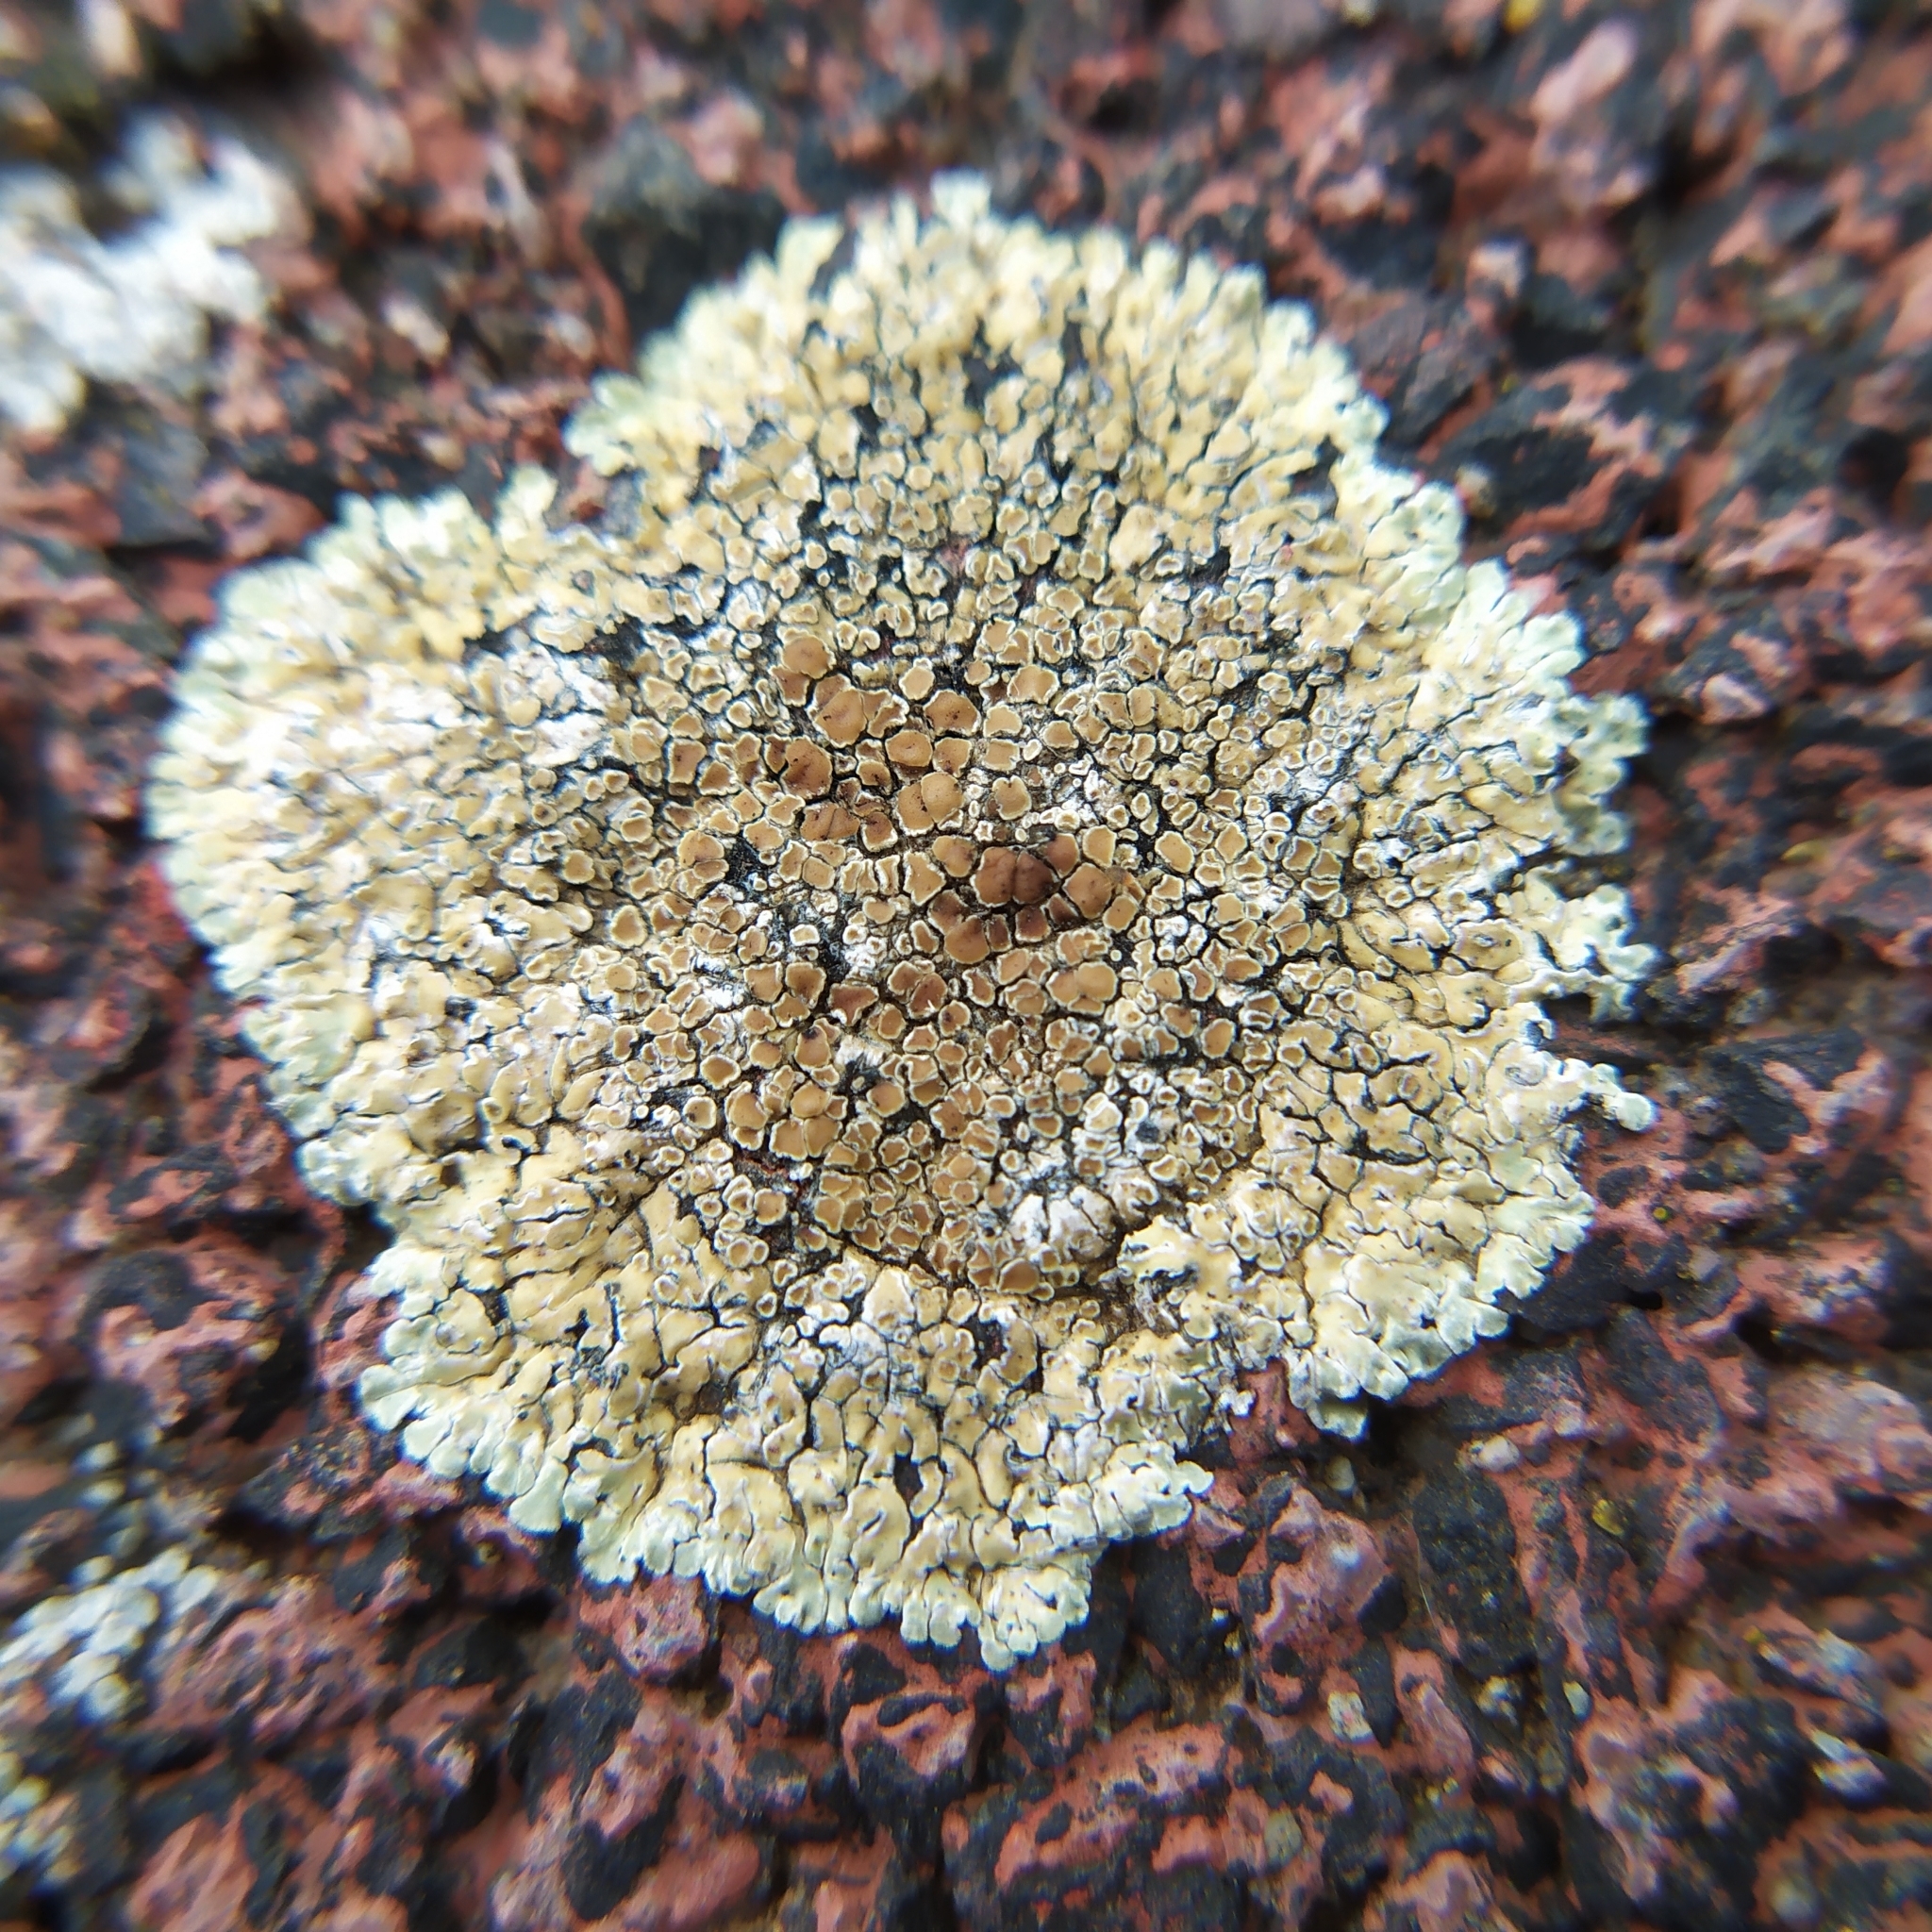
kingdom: Fungi
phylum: Ascomycota
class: Lecanoromycetes
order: Lecanorales
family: Lecanoraceae
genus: Protoparmeliopsis
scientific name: Protoparmeliopsis muralis
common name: Stonewall rim lichen
